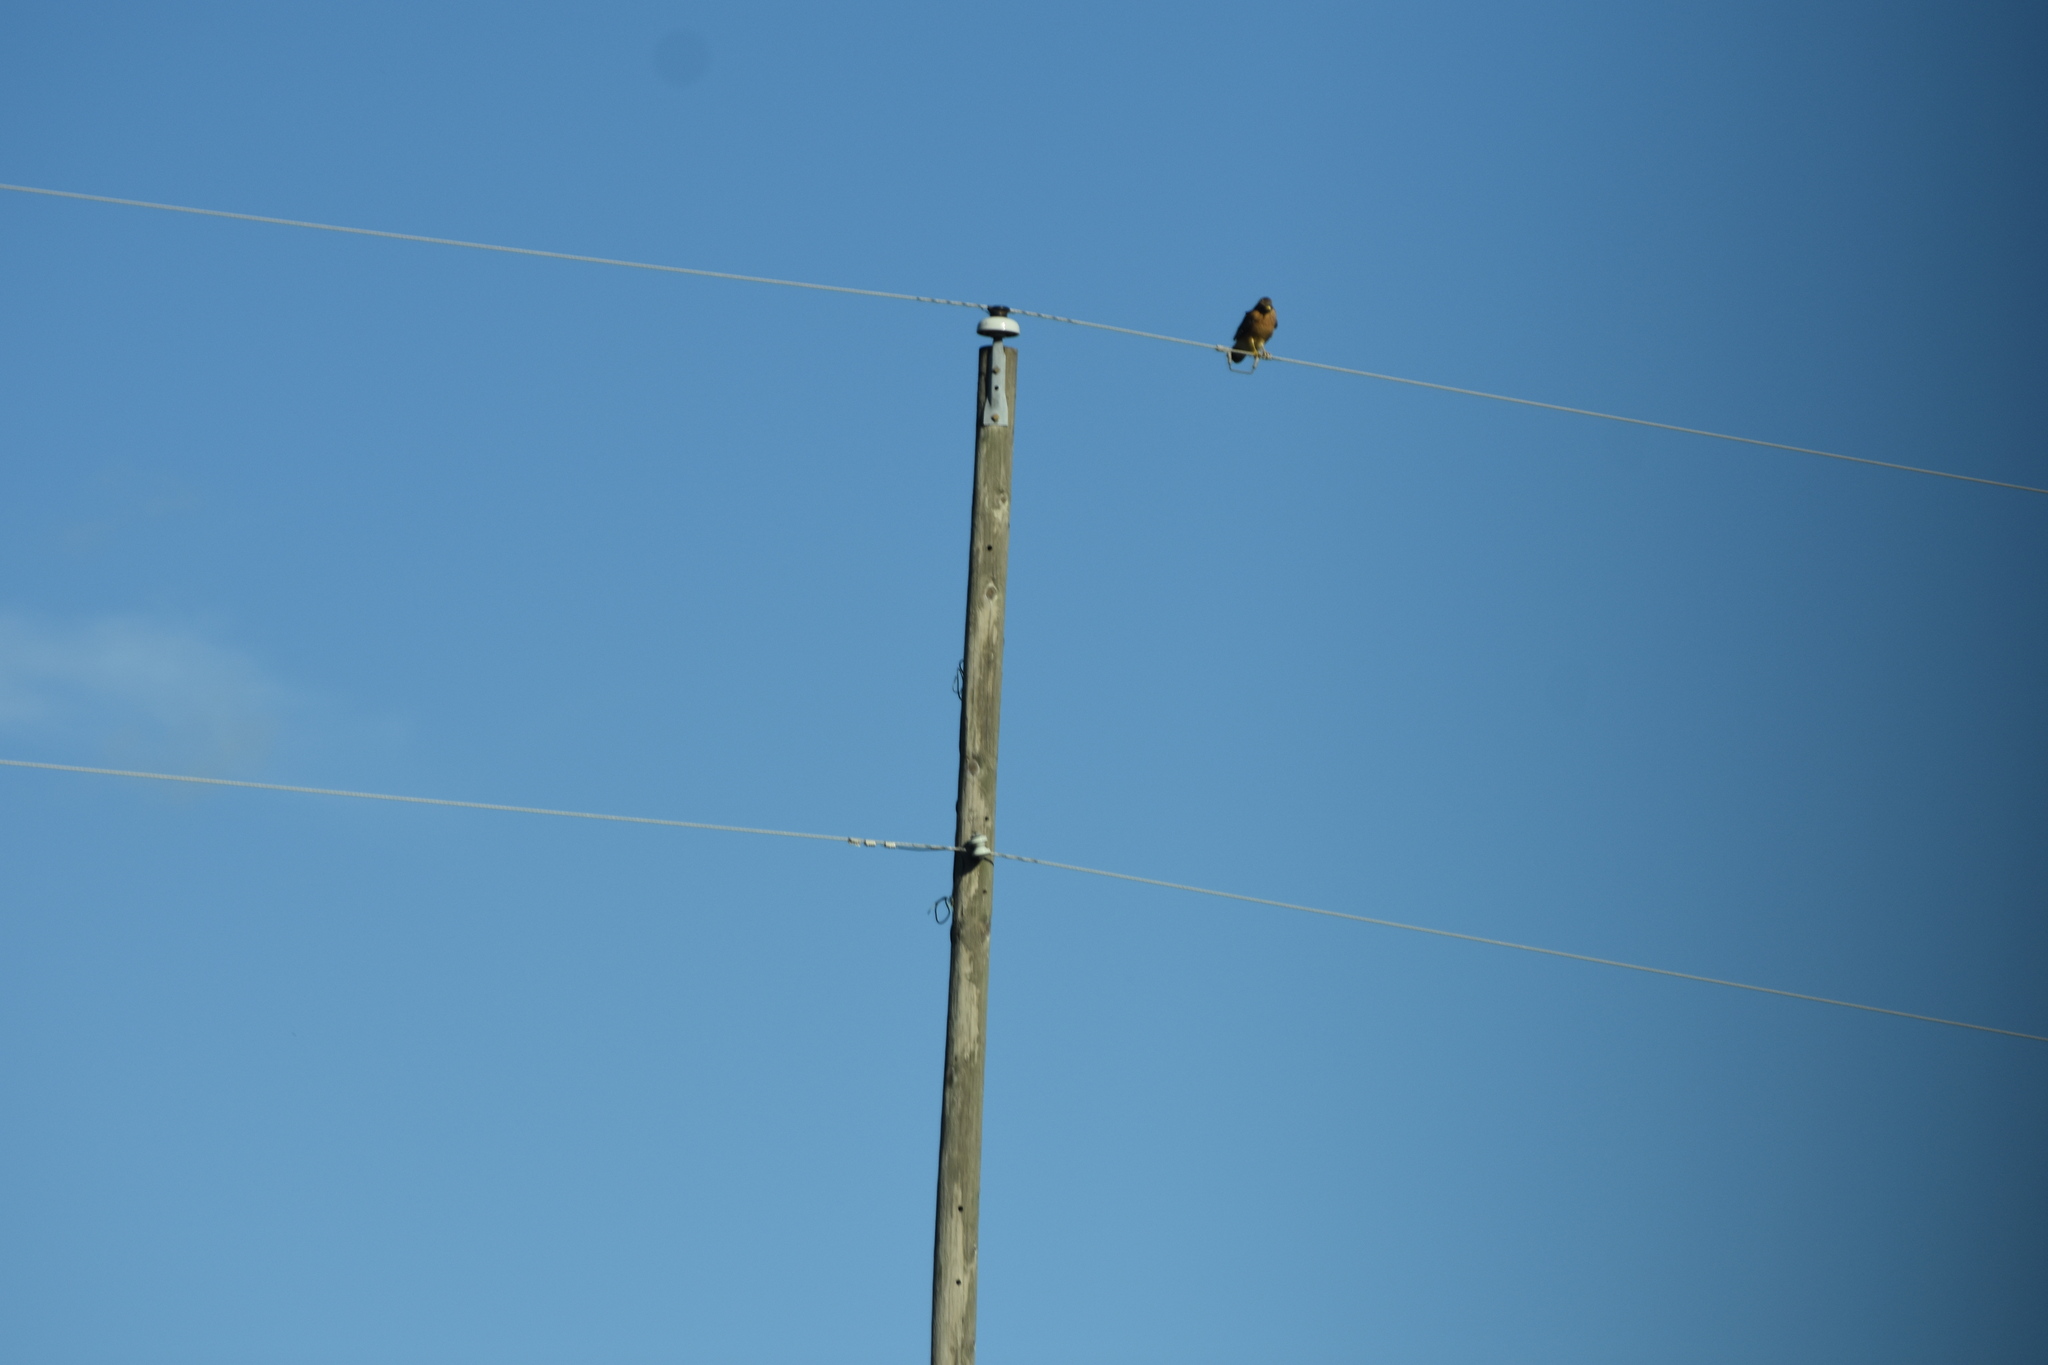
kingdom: Animalia
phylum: Chordata
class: Aves
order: Accipitriformes
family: Accipitridae
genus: Haliaeetus
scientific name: Haliaeetus leucocephalus
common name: Bald eagle
